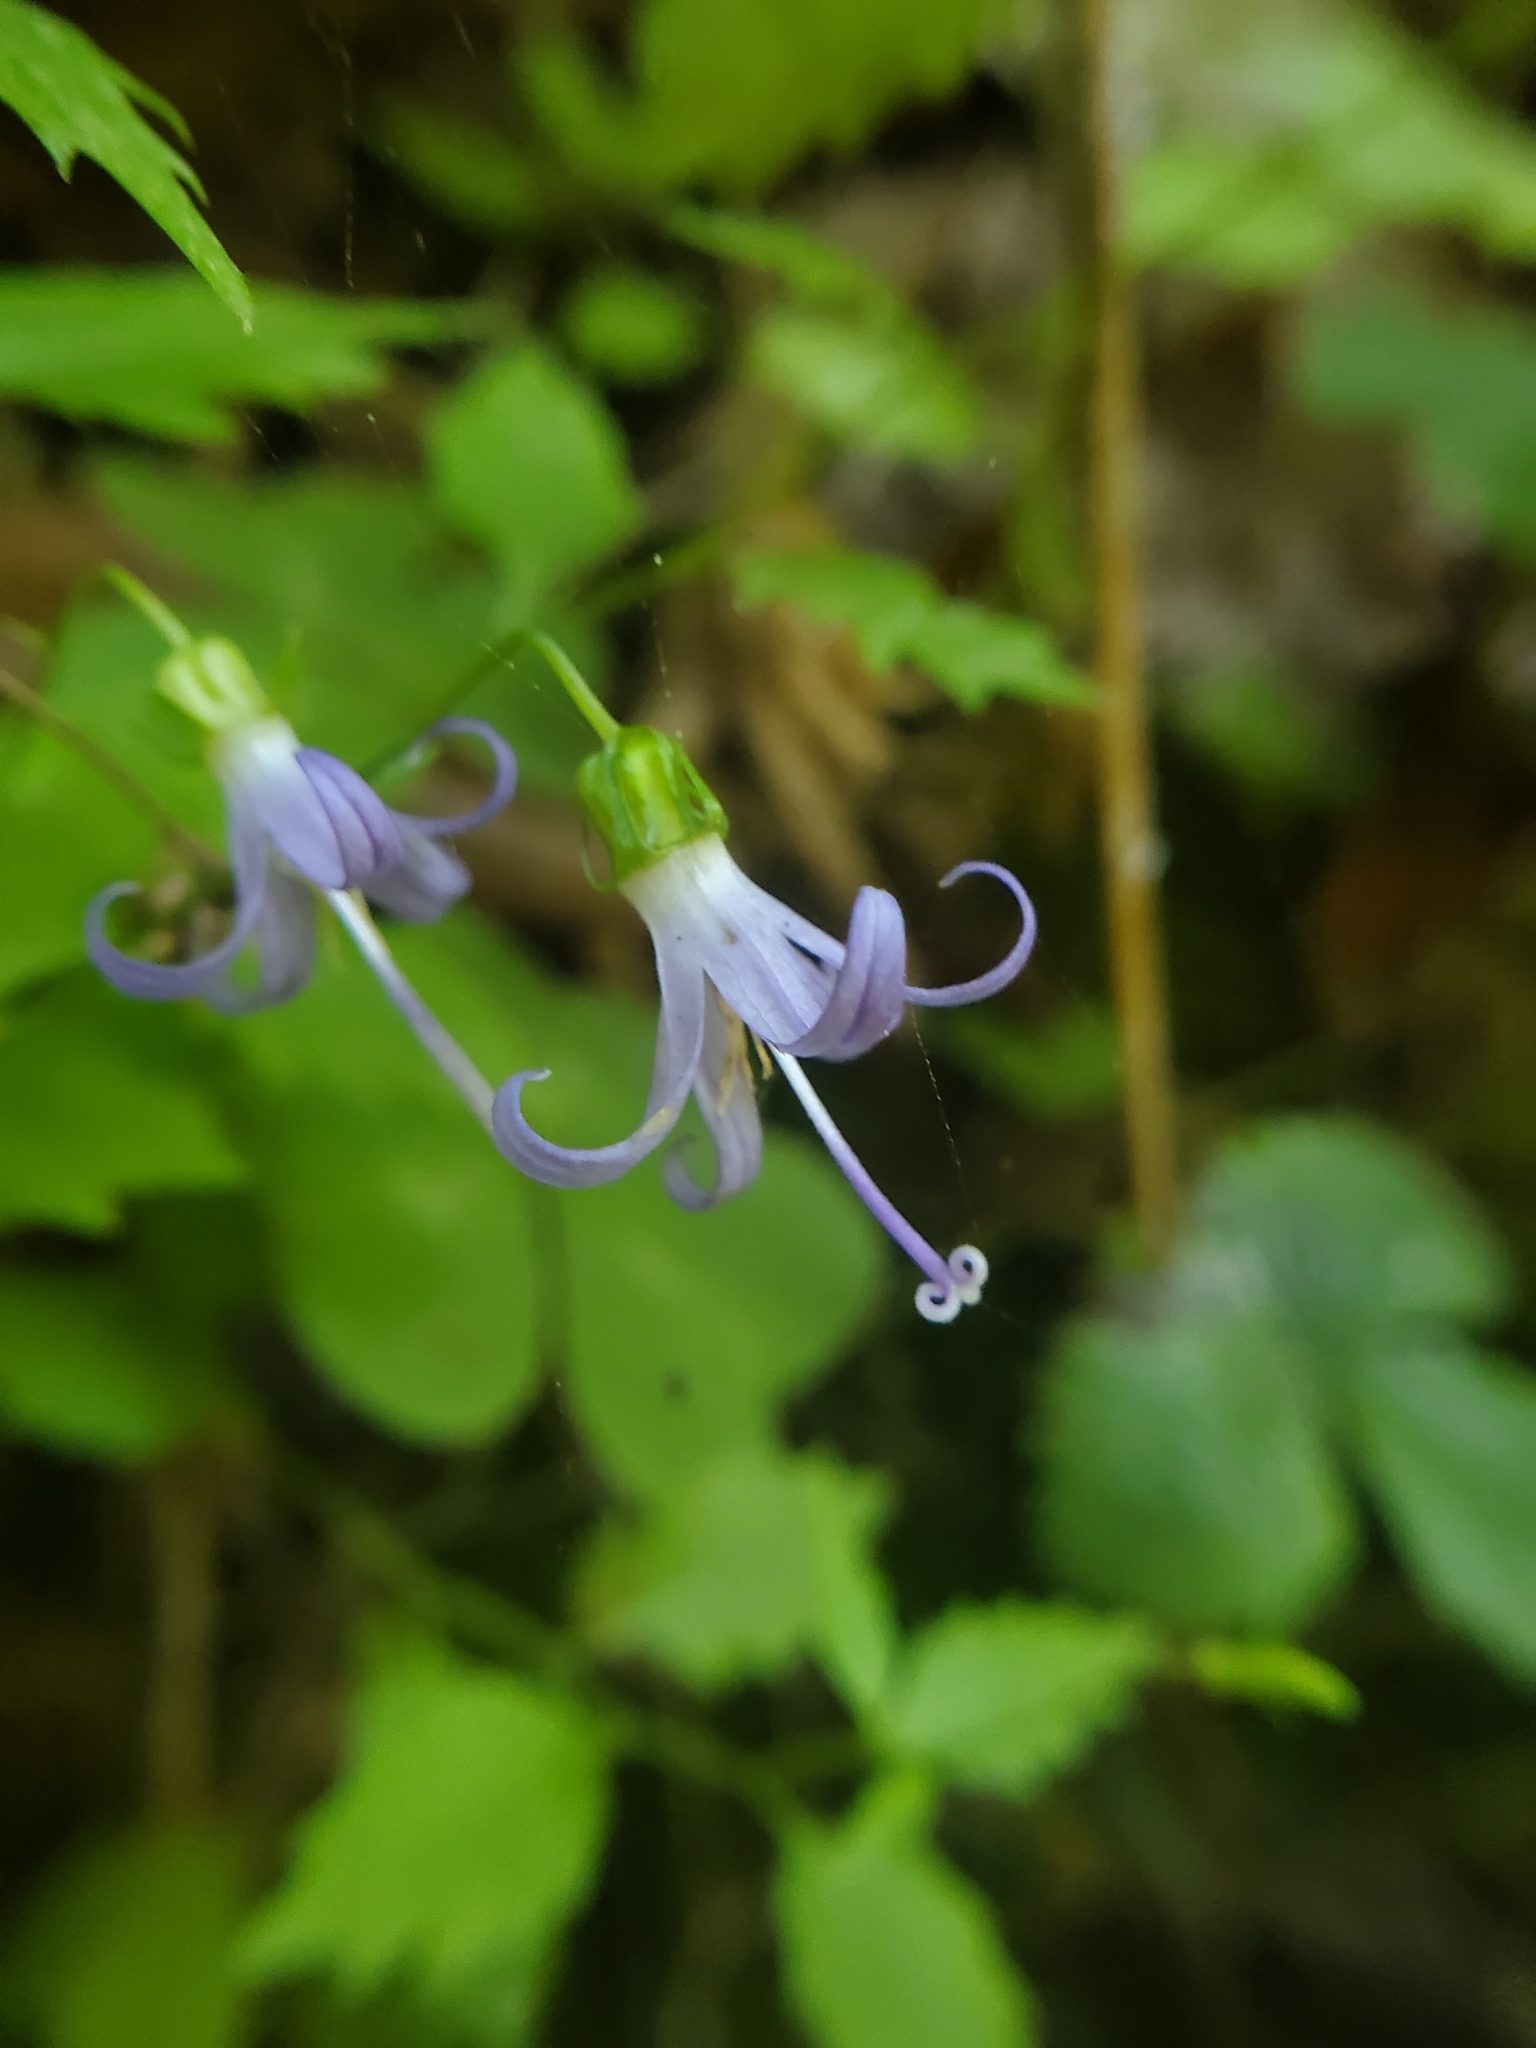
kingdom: Plantae
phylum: Tracheophyta
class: Magnoliopsida
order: Asterales
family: Campanulaceae
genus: Smithiastrum
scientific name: Smithiastrum prenanthoides
